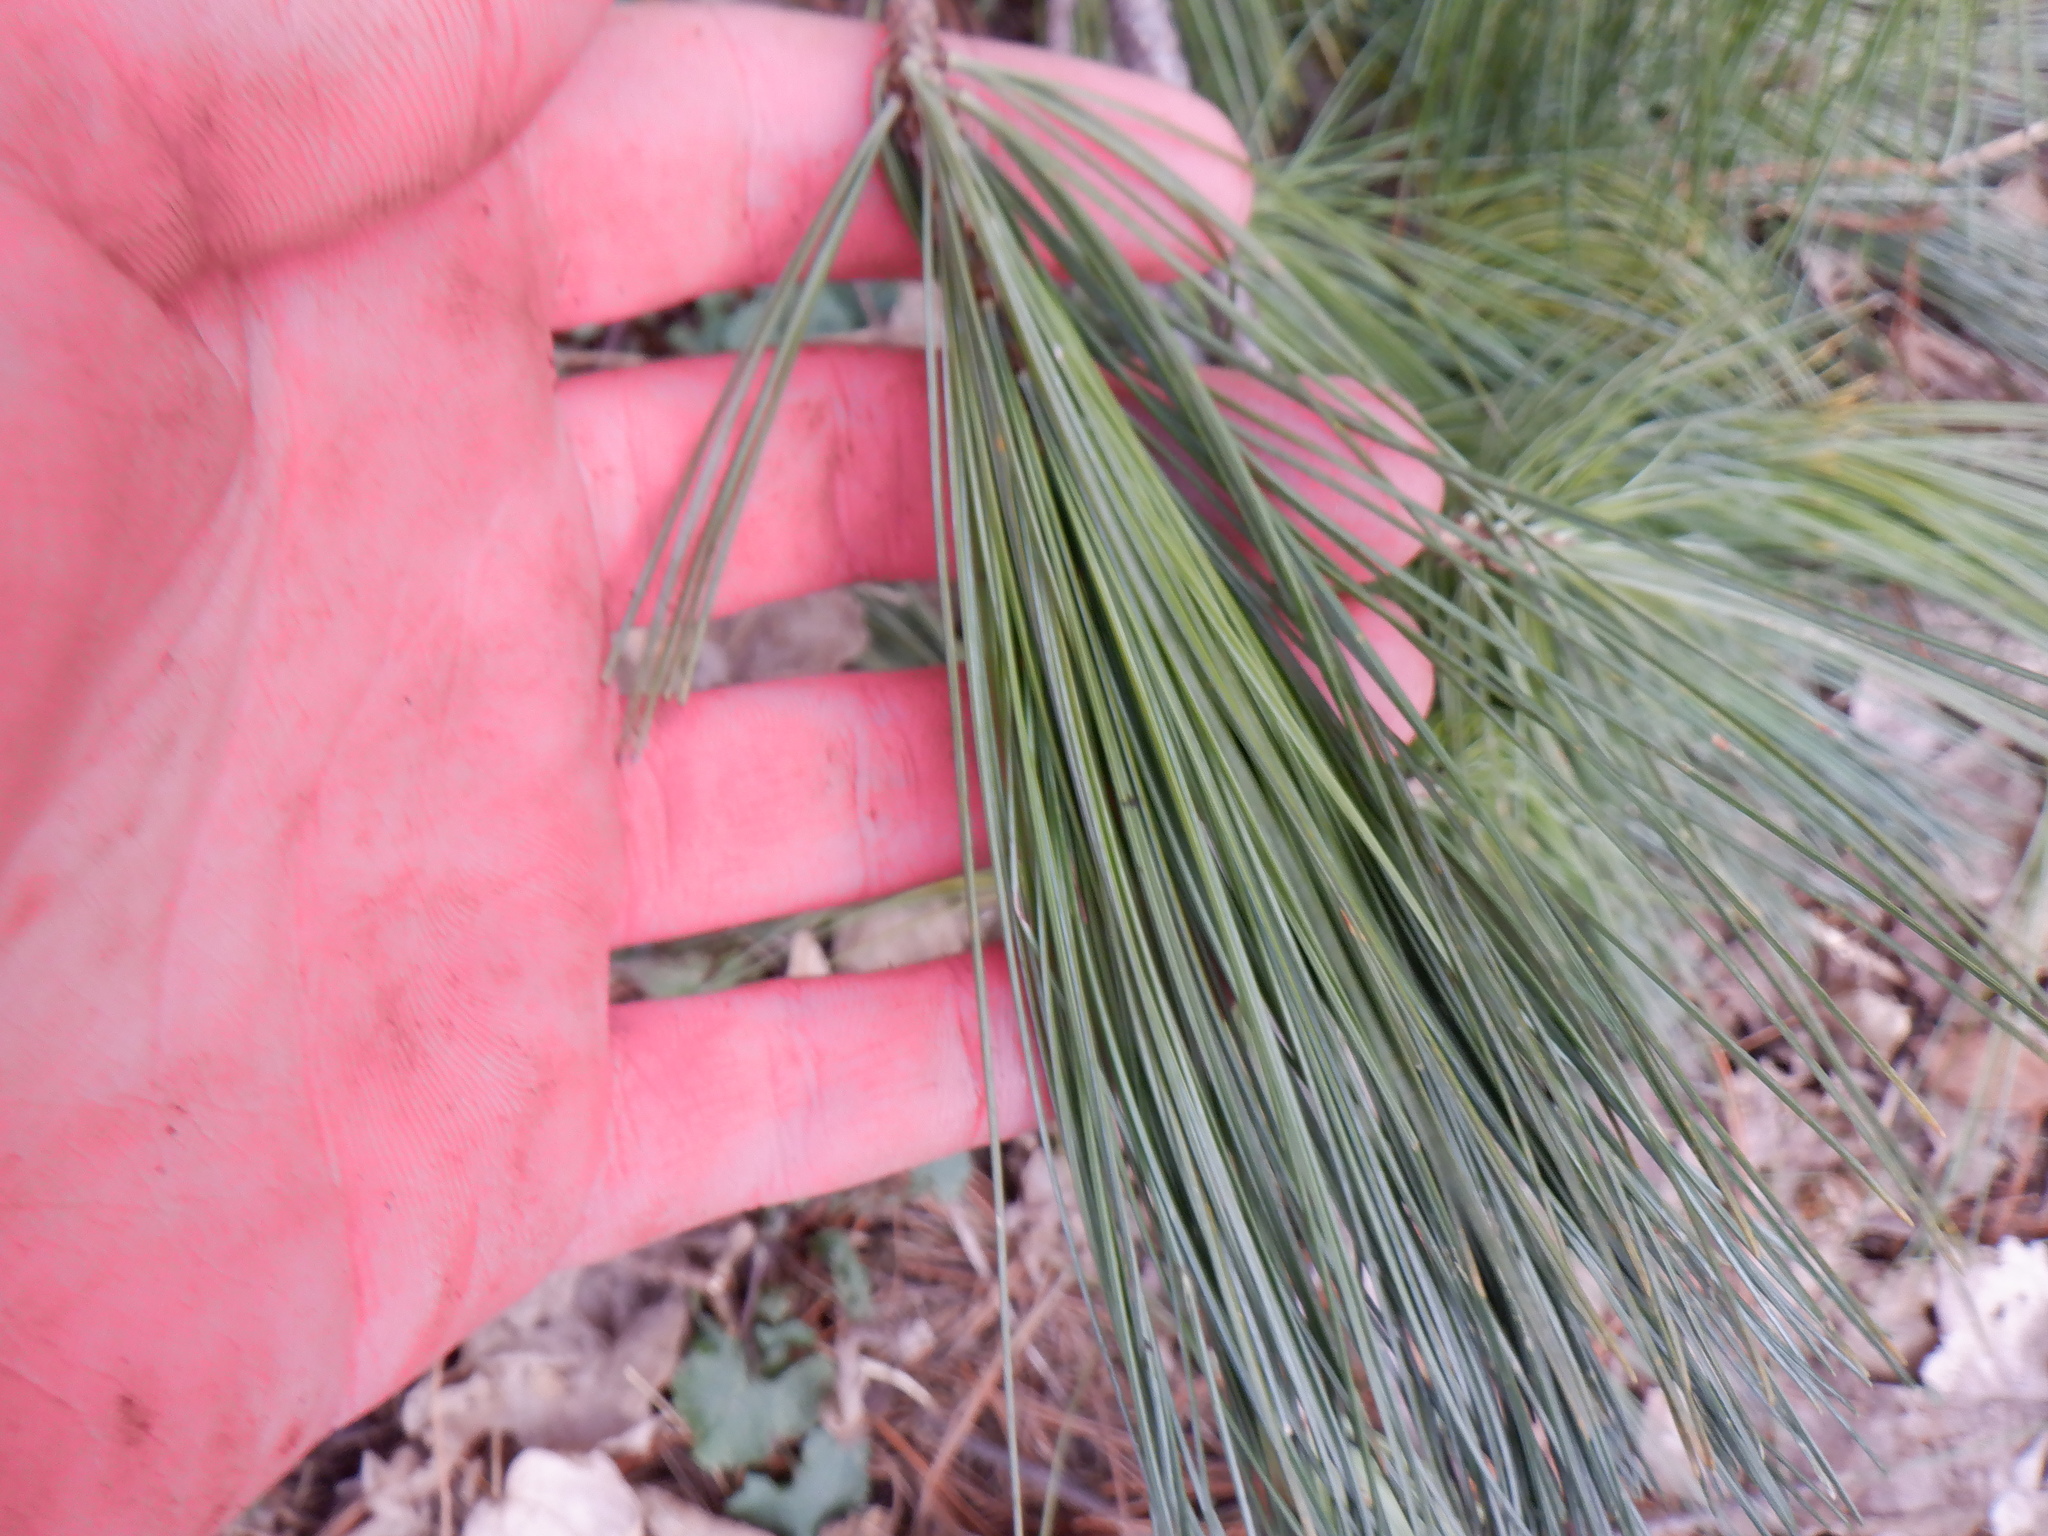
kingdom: Plantae
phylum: Tracheophyta
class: Pinopsida
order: Pinales
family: Pinaceae
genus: Pinus
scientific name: Pinus strobus
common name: Weymouth pine
